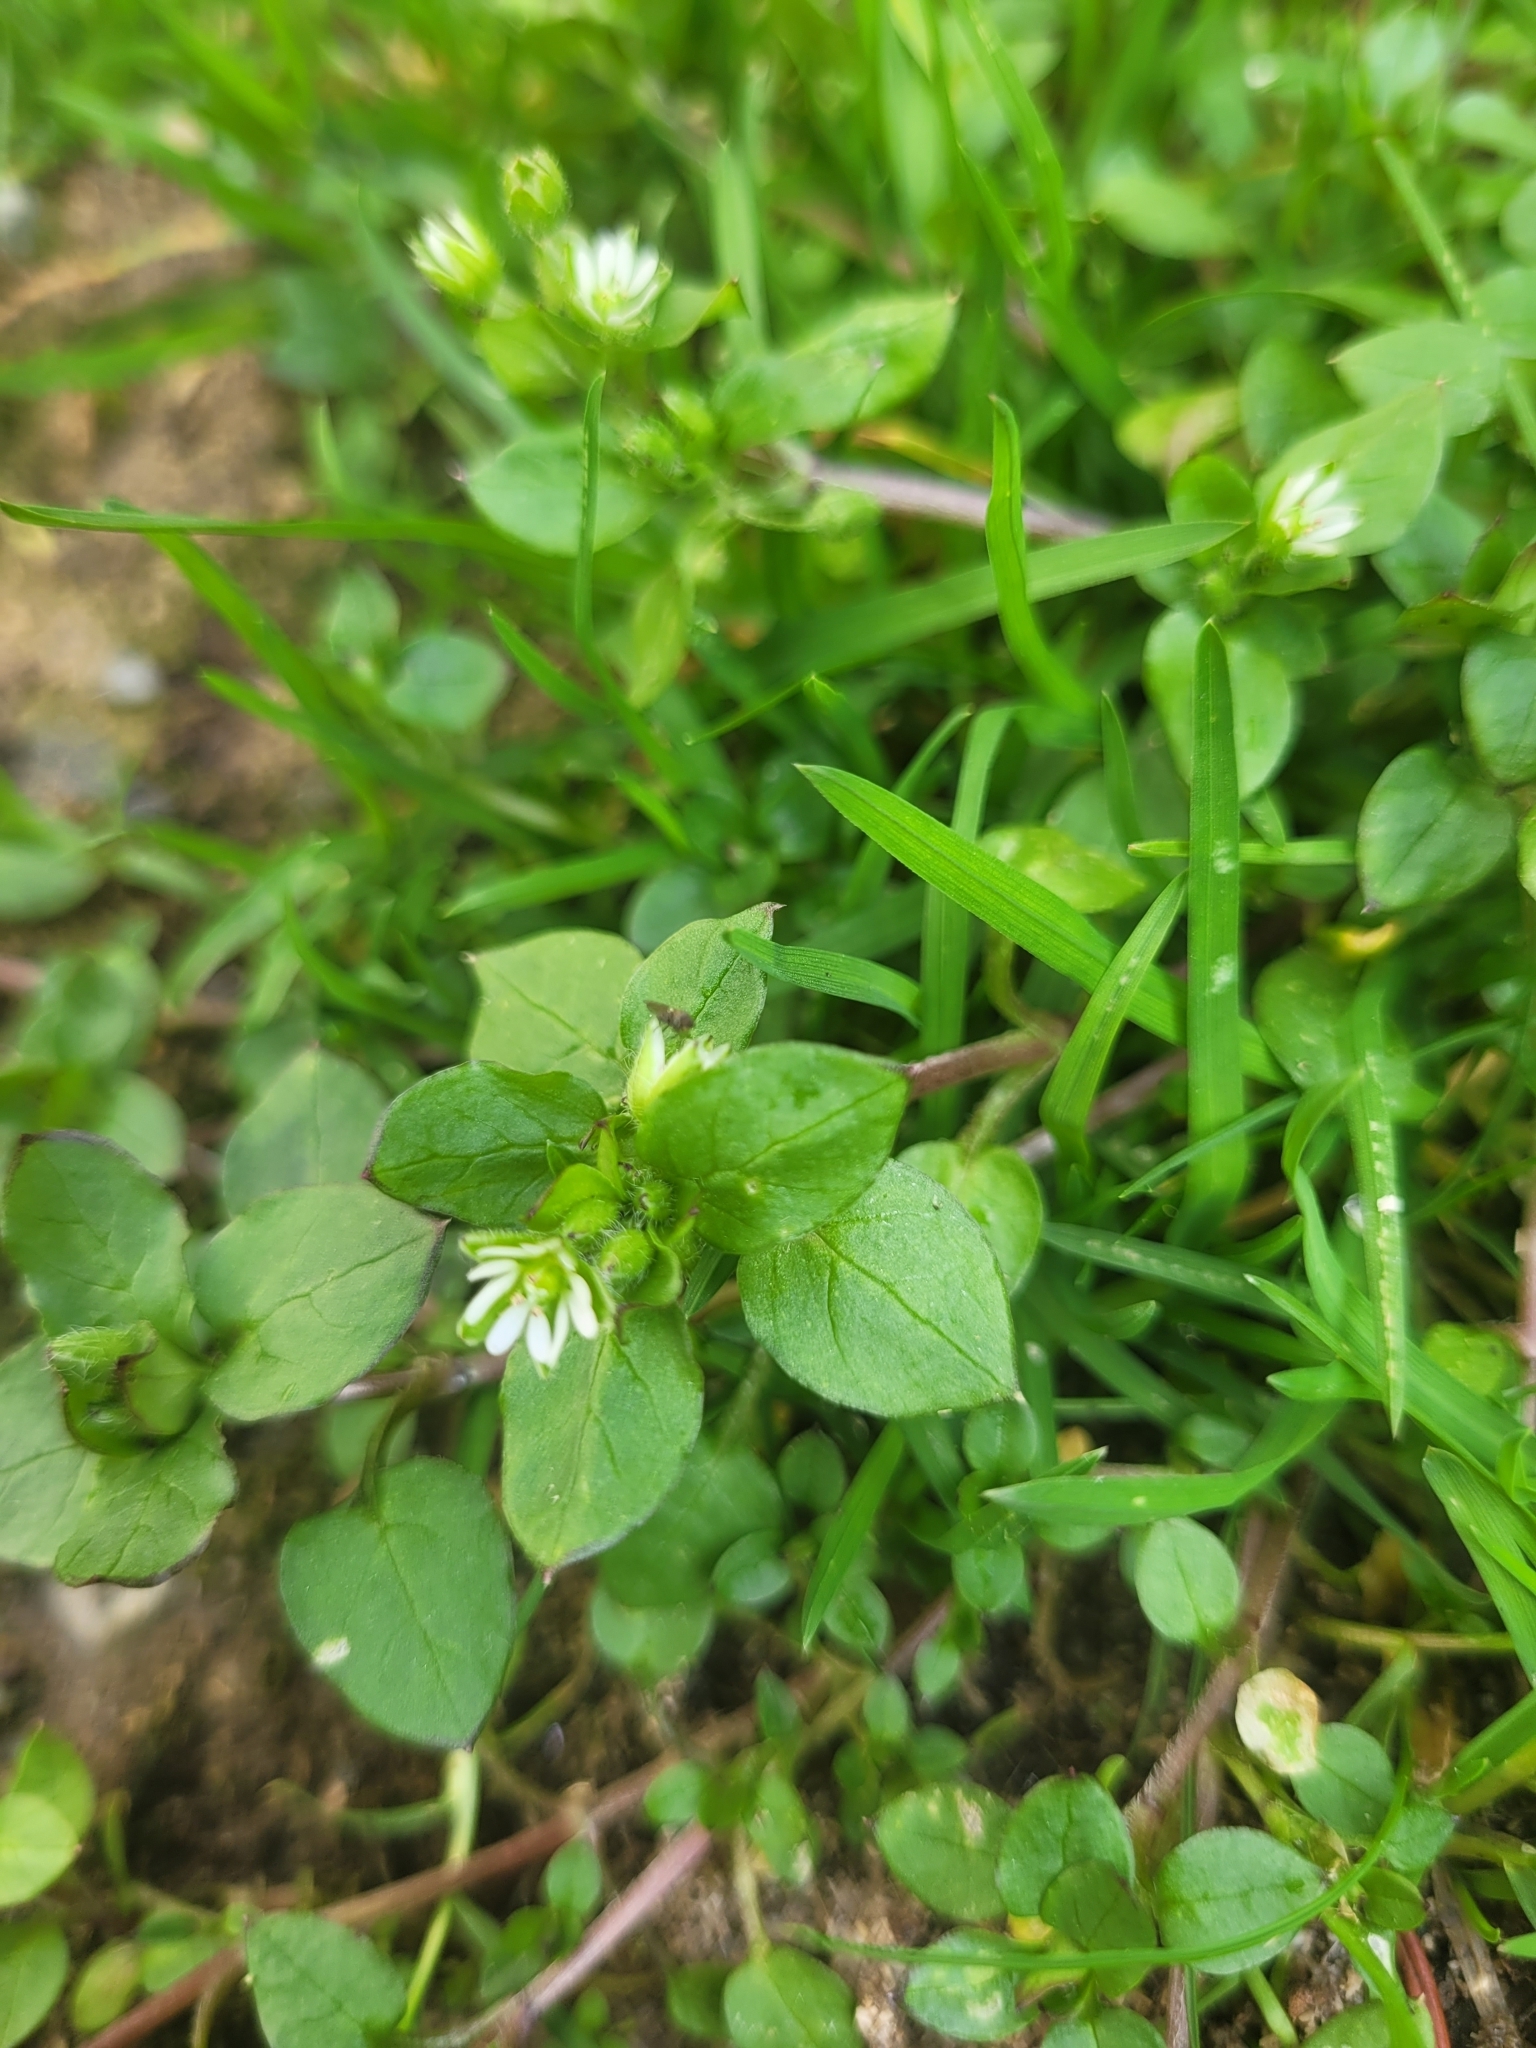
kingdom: Plantae
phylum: Tracheophyta
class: Magnoliopsida
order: Caryophyllales
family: Caryophyllaceae
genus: Stellaria
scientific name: Stellaria media
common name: Common chickweed
